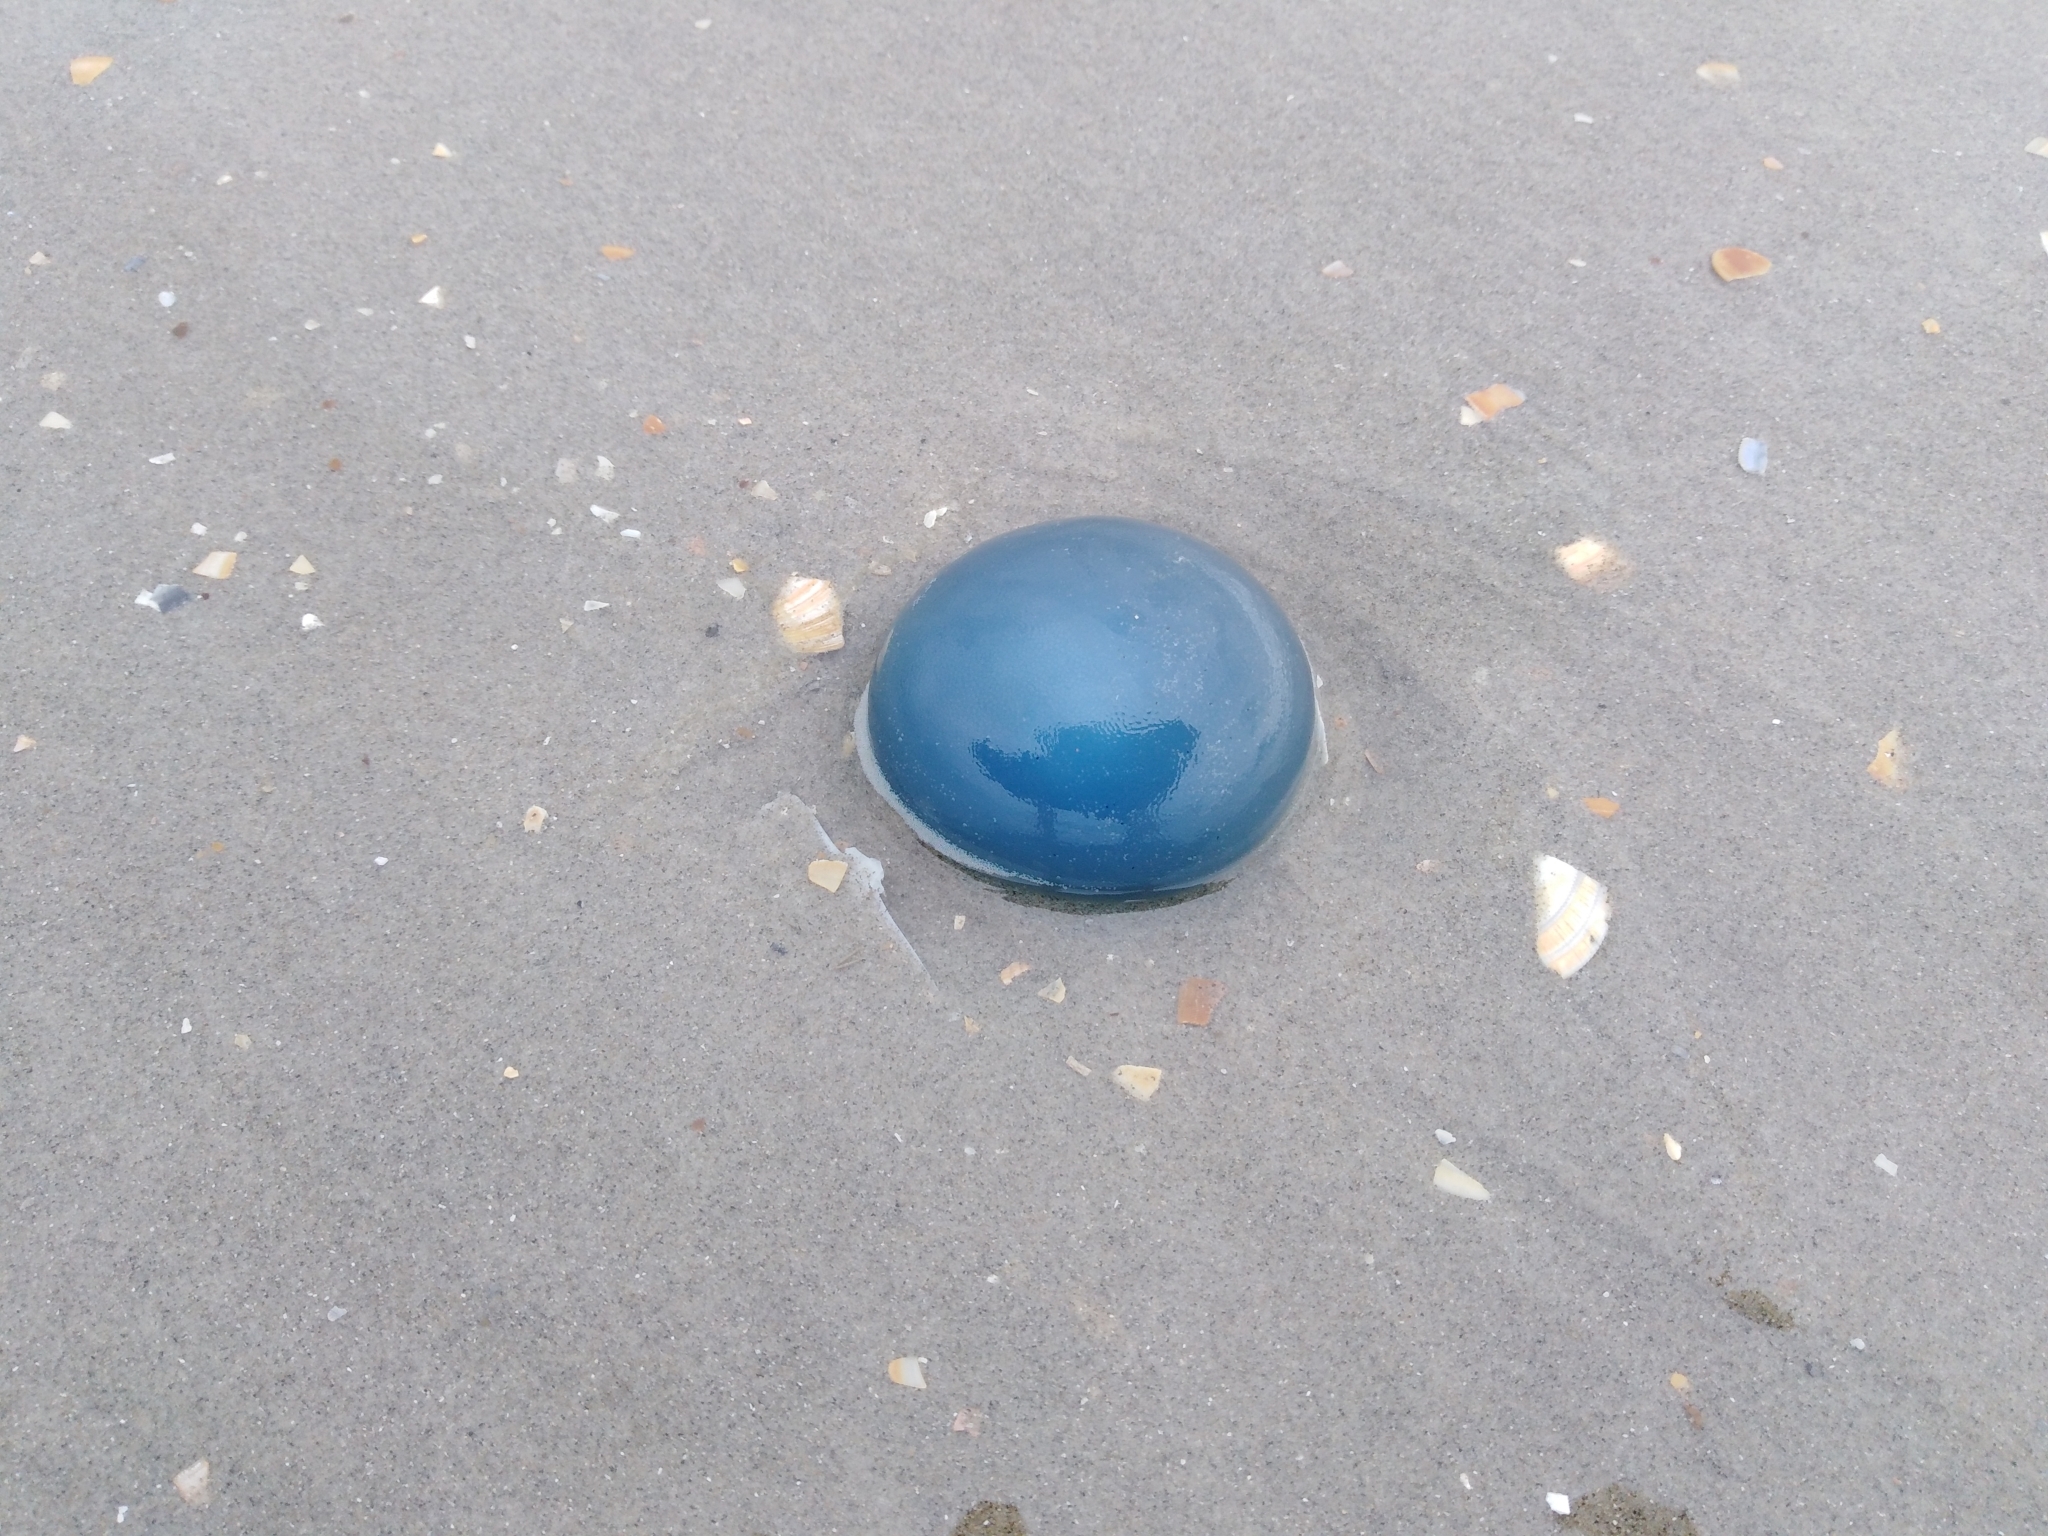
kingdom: Animalia
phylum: Cnidaria
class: Scyphozoa
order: Rhizostomeae
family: Rhizostomatidae
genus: Rhizostoma
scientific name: Rhizostoma octopus
